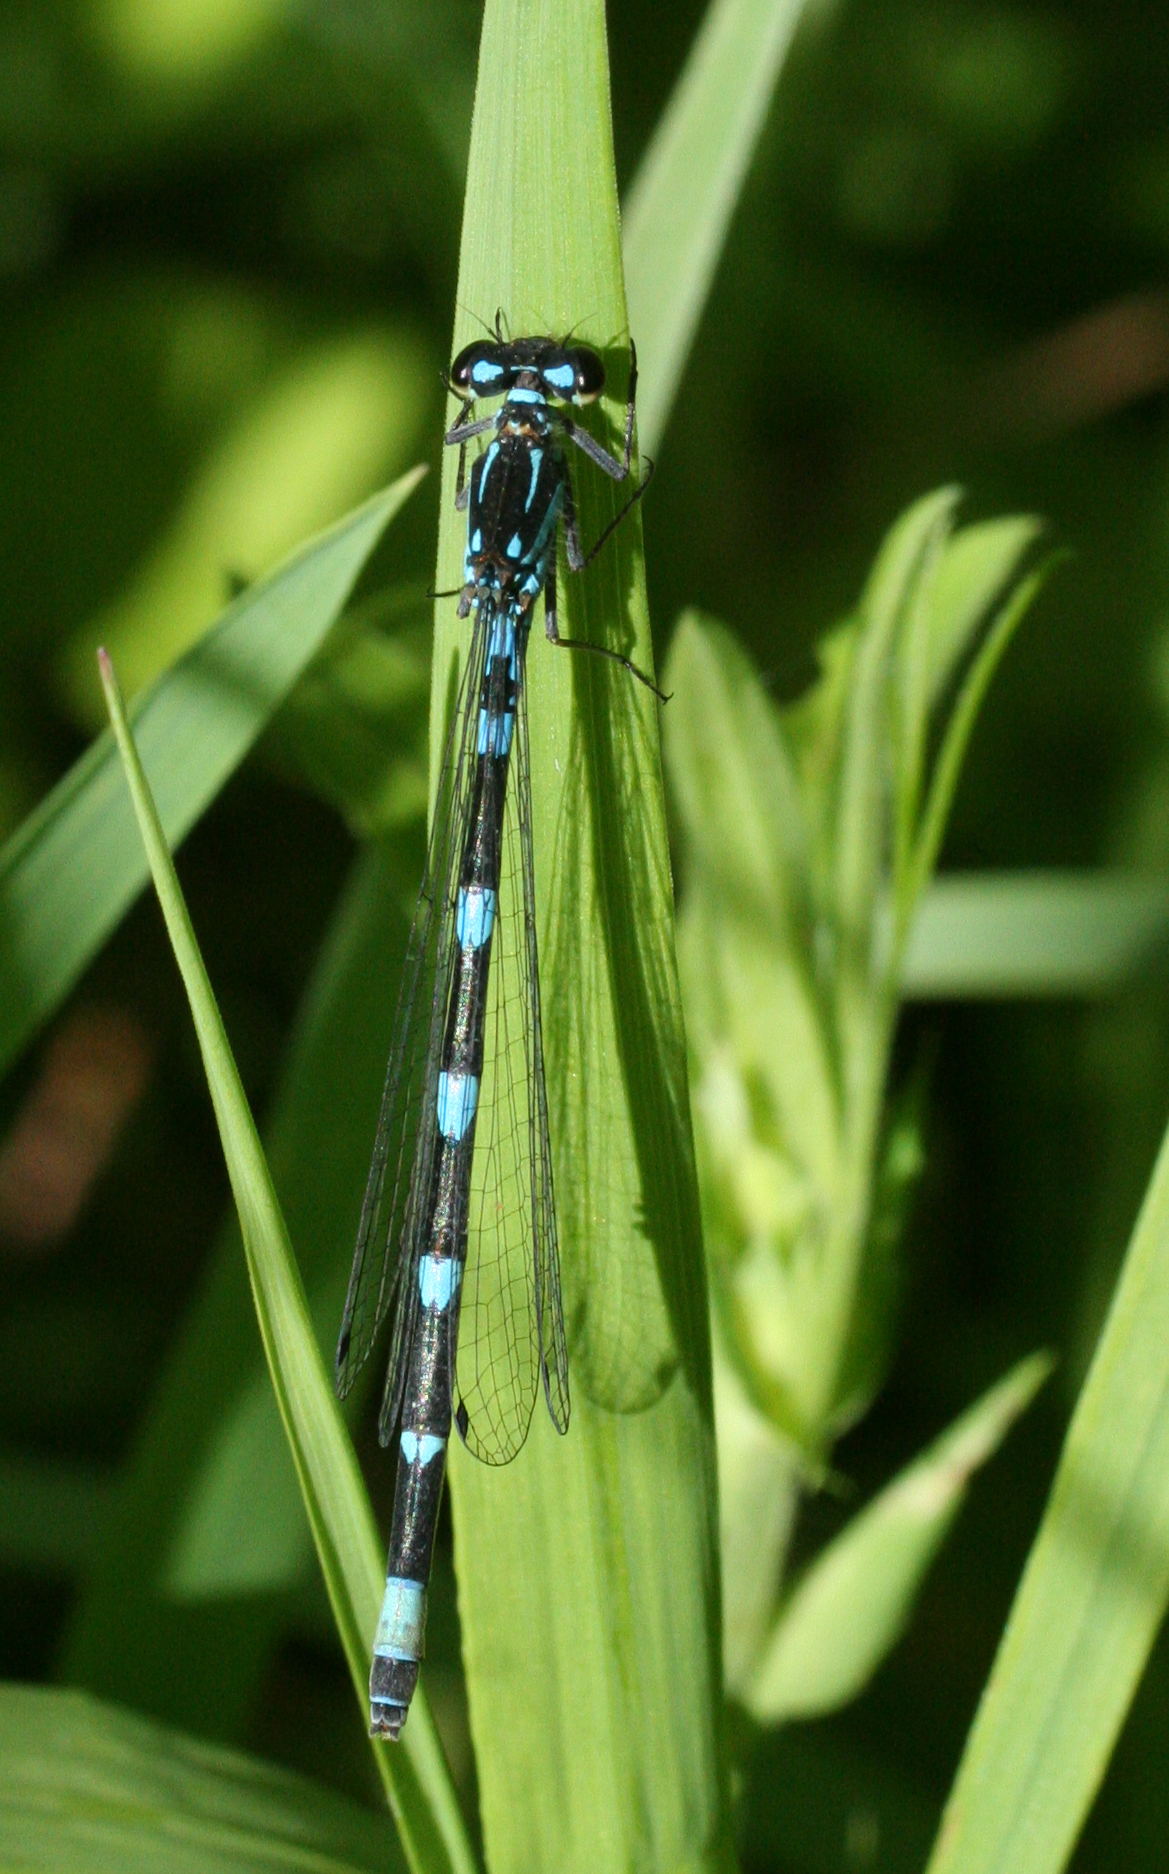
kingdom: Animalia
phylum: Arthropoda
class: Insecta
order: Odonata
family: Coenagrionidae
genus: Coenagrion
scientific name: Coenagrion pulchellum
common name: Variable bluet
